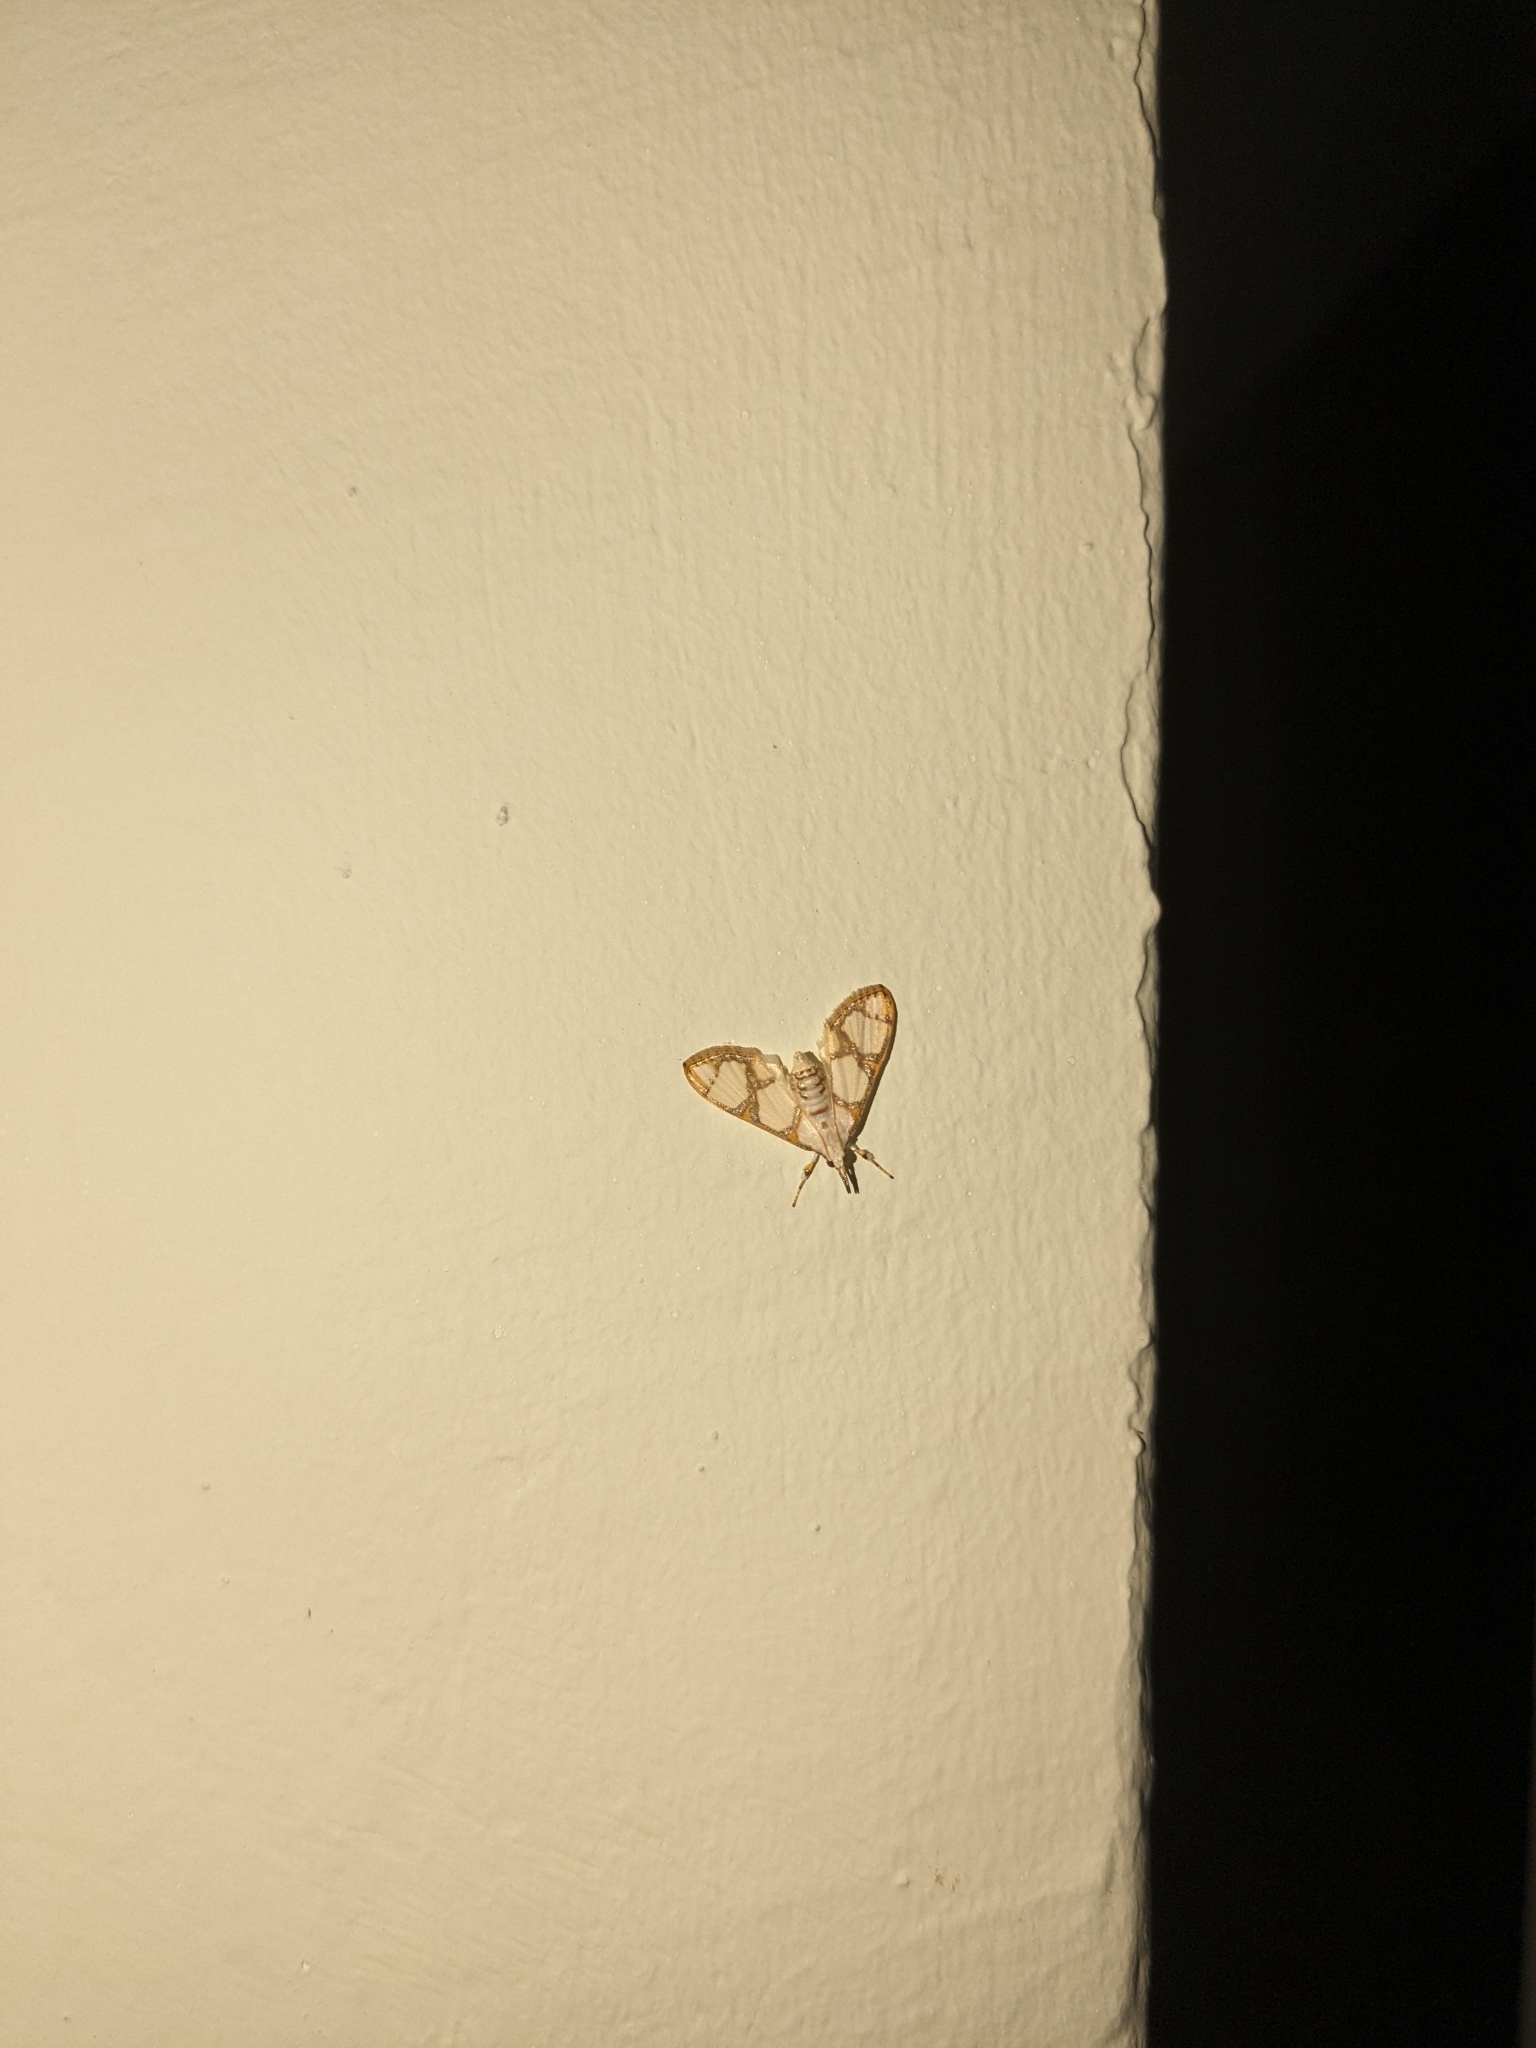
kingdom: Animalia
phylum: Arthropoda
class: Insecta
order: Lepidoptera
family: Crambidae
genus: Cirrhochrista
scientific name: Cirrhochrista fumipalpis
